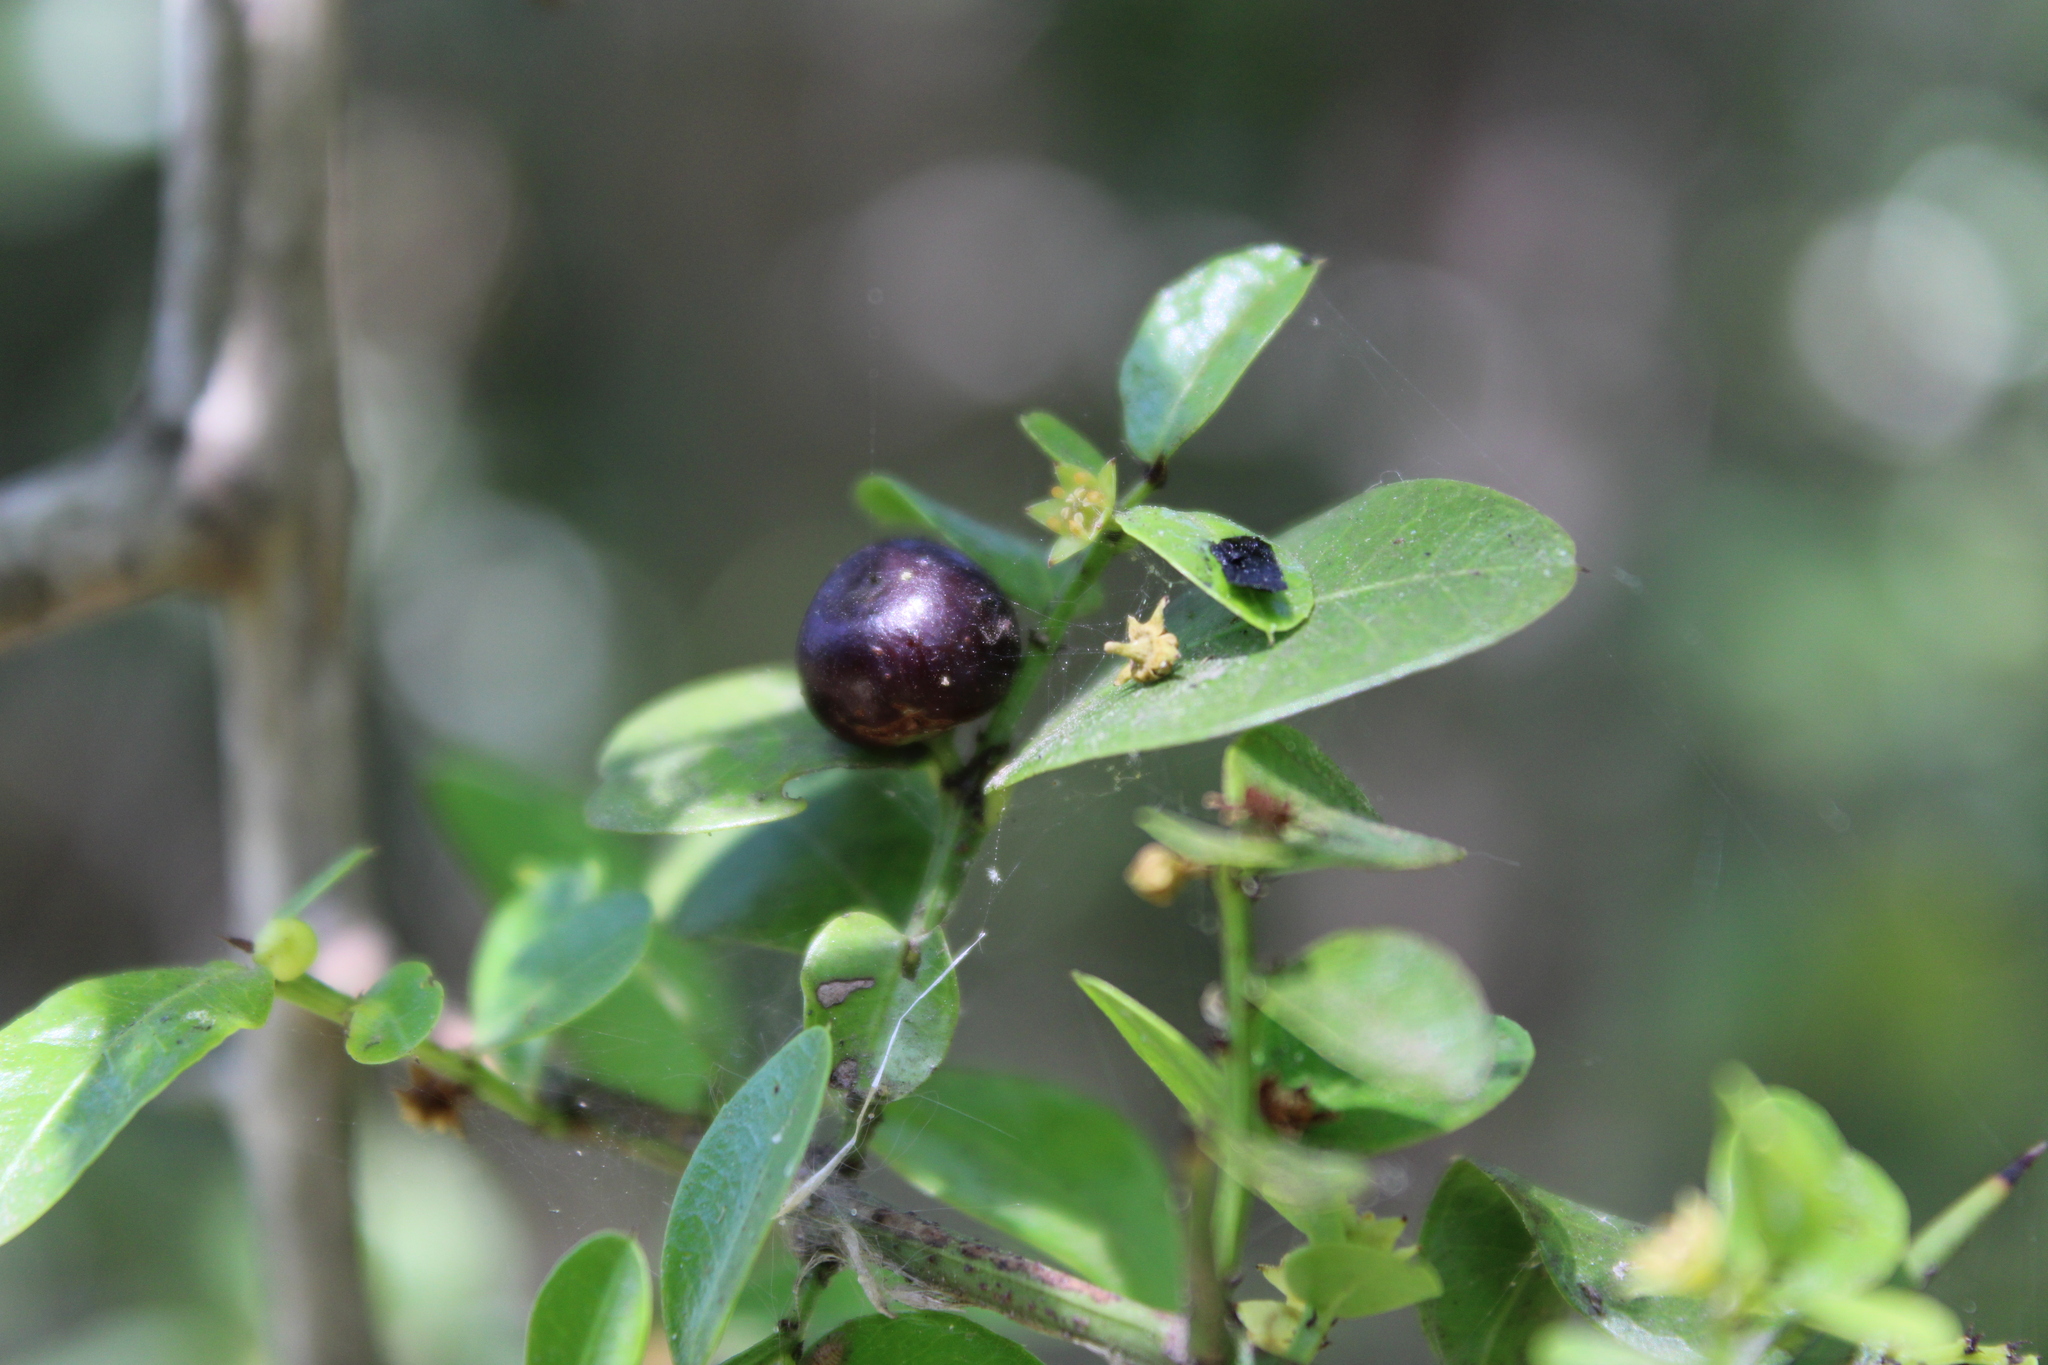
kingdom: Plantae
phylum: Tracheophyta
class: Magnoliopsida
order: Rosales
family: Rhamnaceae
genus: Scutia
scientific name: Scutia buxifolia
